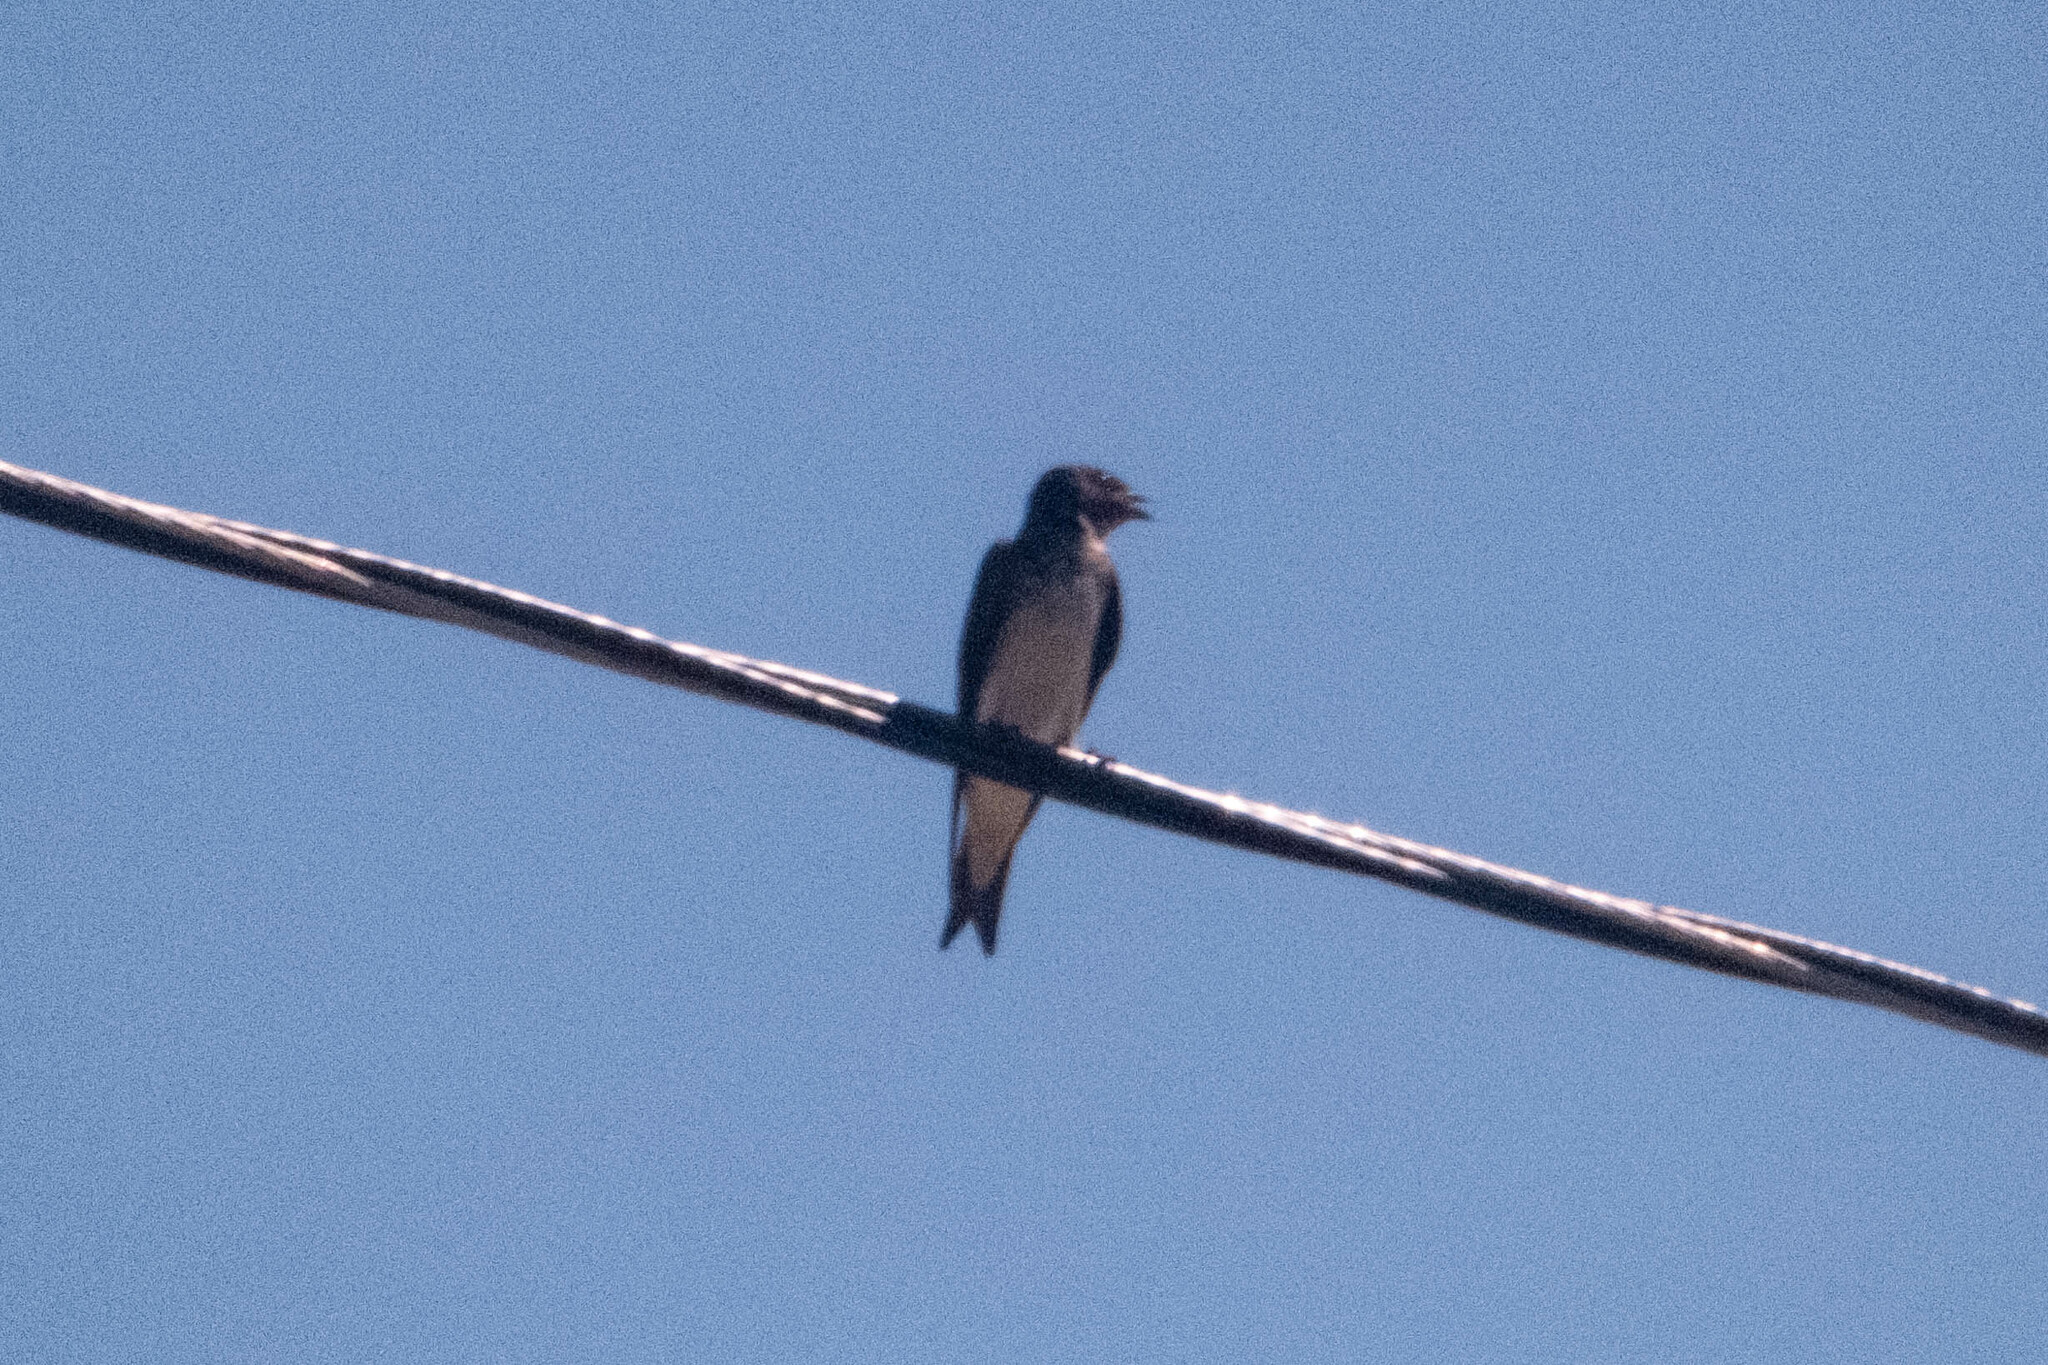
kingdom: Animalia
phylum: Chordata
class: Aves
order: Passeriformes
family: Hirundinidae
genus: Progne
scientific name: Progne chalybea
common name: Grey-breasted martin
